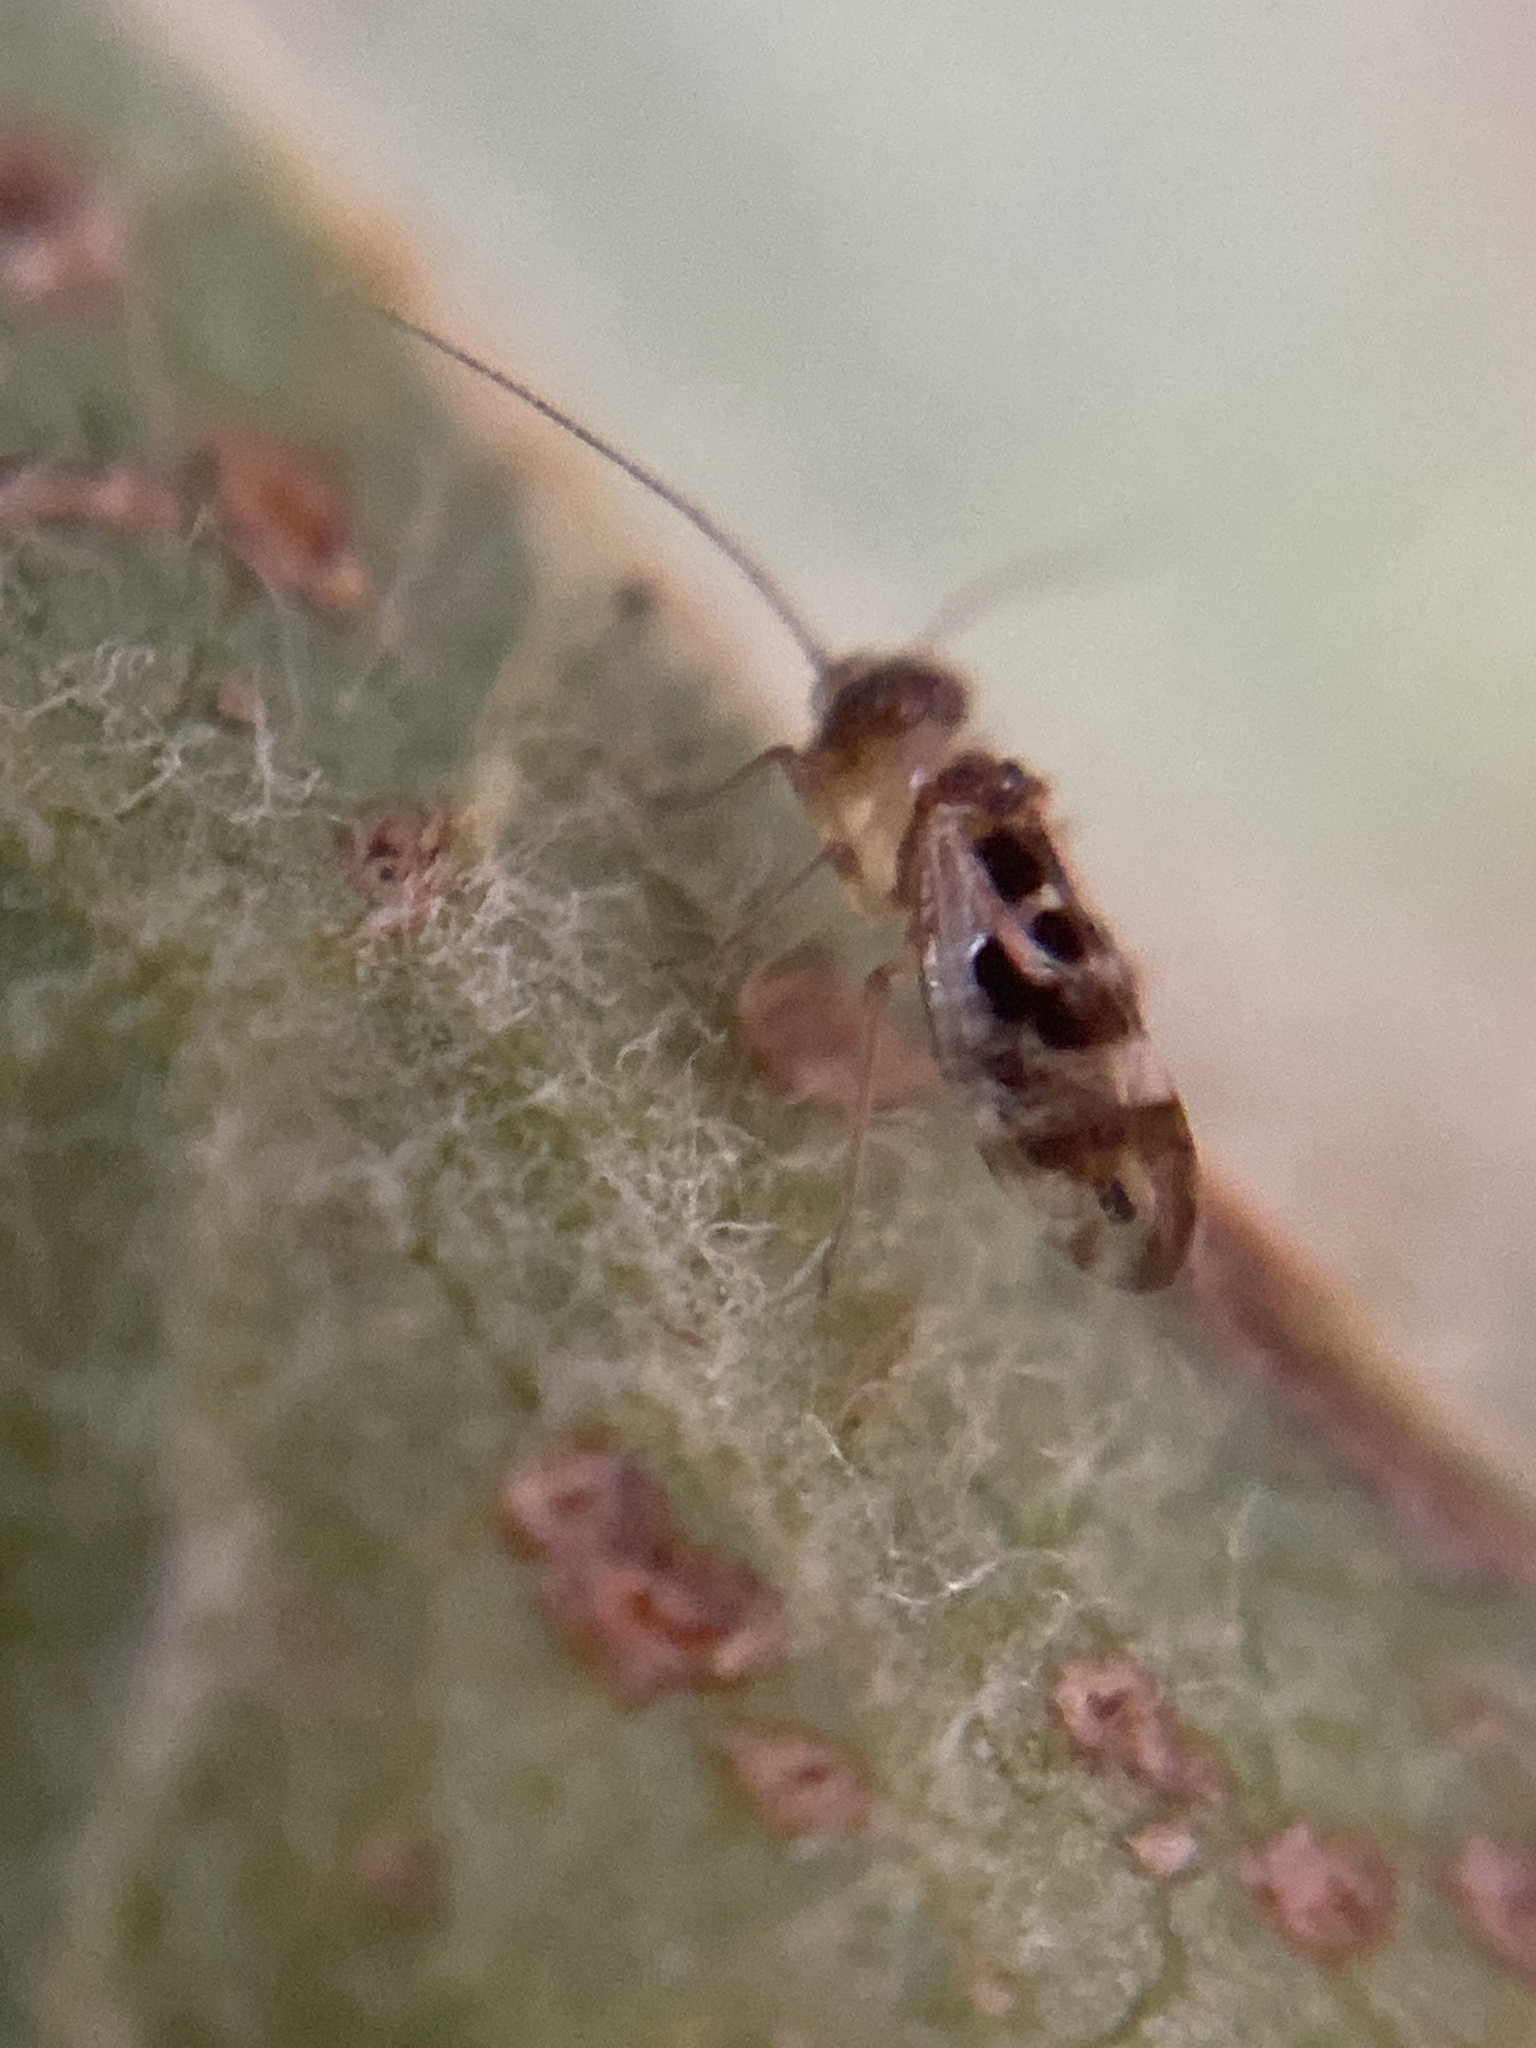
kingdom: Animalia
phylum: Arthropoda
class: Insecta
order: Psocodea
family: Stenopsocidae
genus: Graphopsocus
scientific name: Graphopsocus cruciatus
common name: Lizard bark louse
